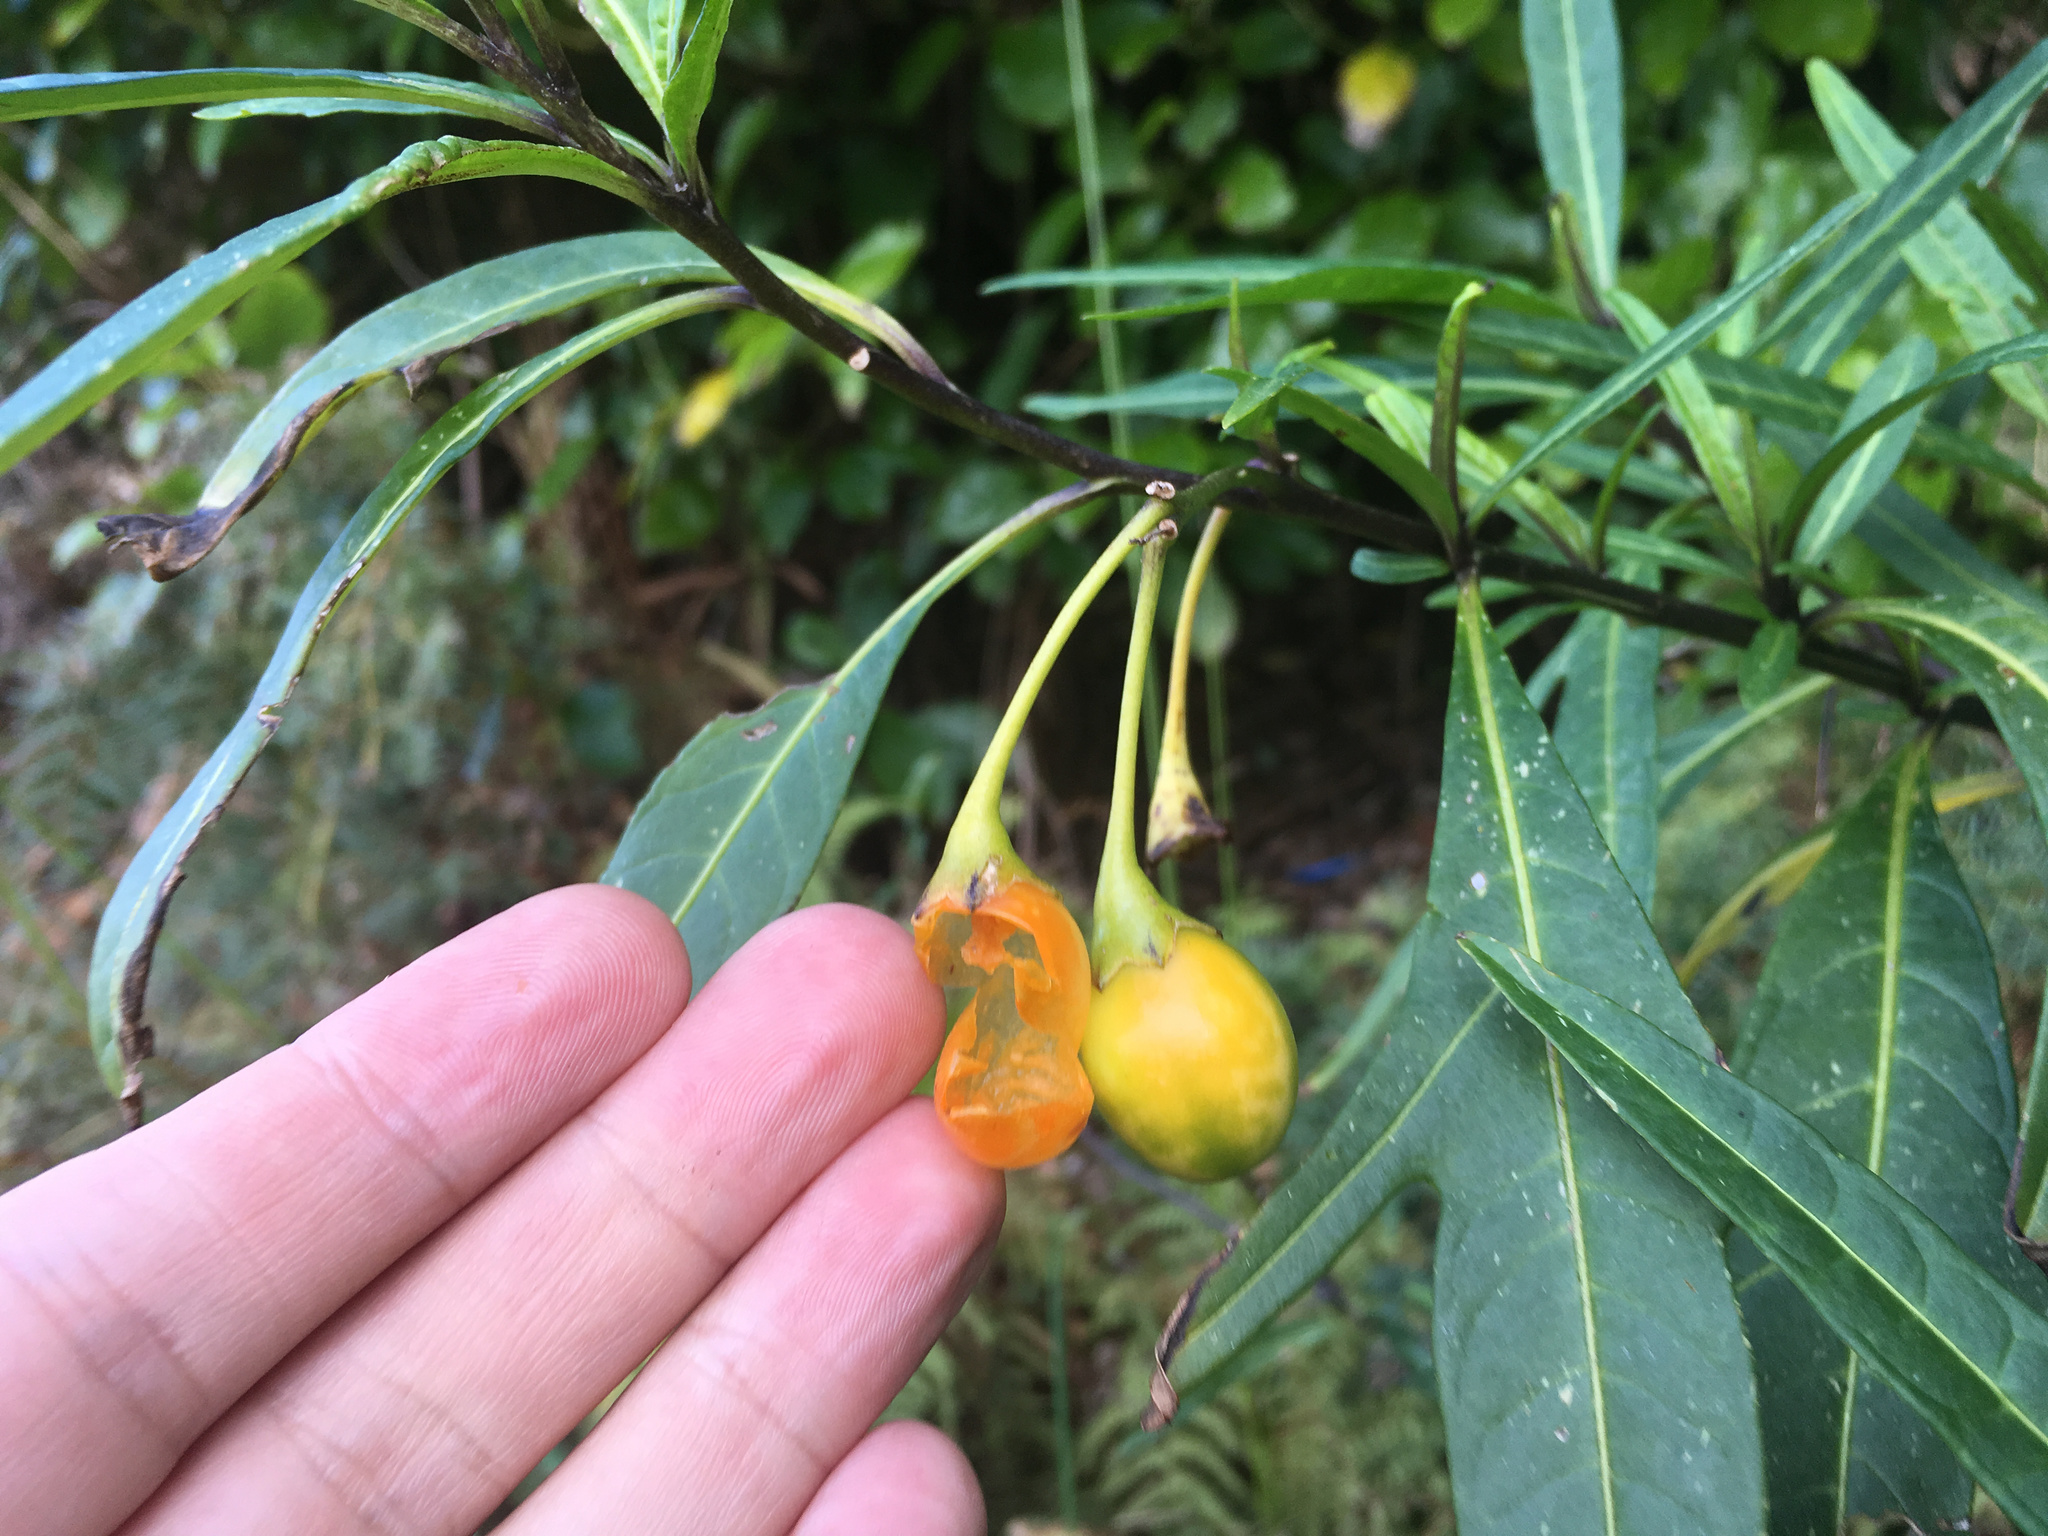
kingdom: Plantae
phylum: Tracheophyta
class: Magnoliopsida
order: Solanales
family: Solanaceae
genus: Solanum
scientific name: Solanum laciniatum
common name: Kangaroo-apple
